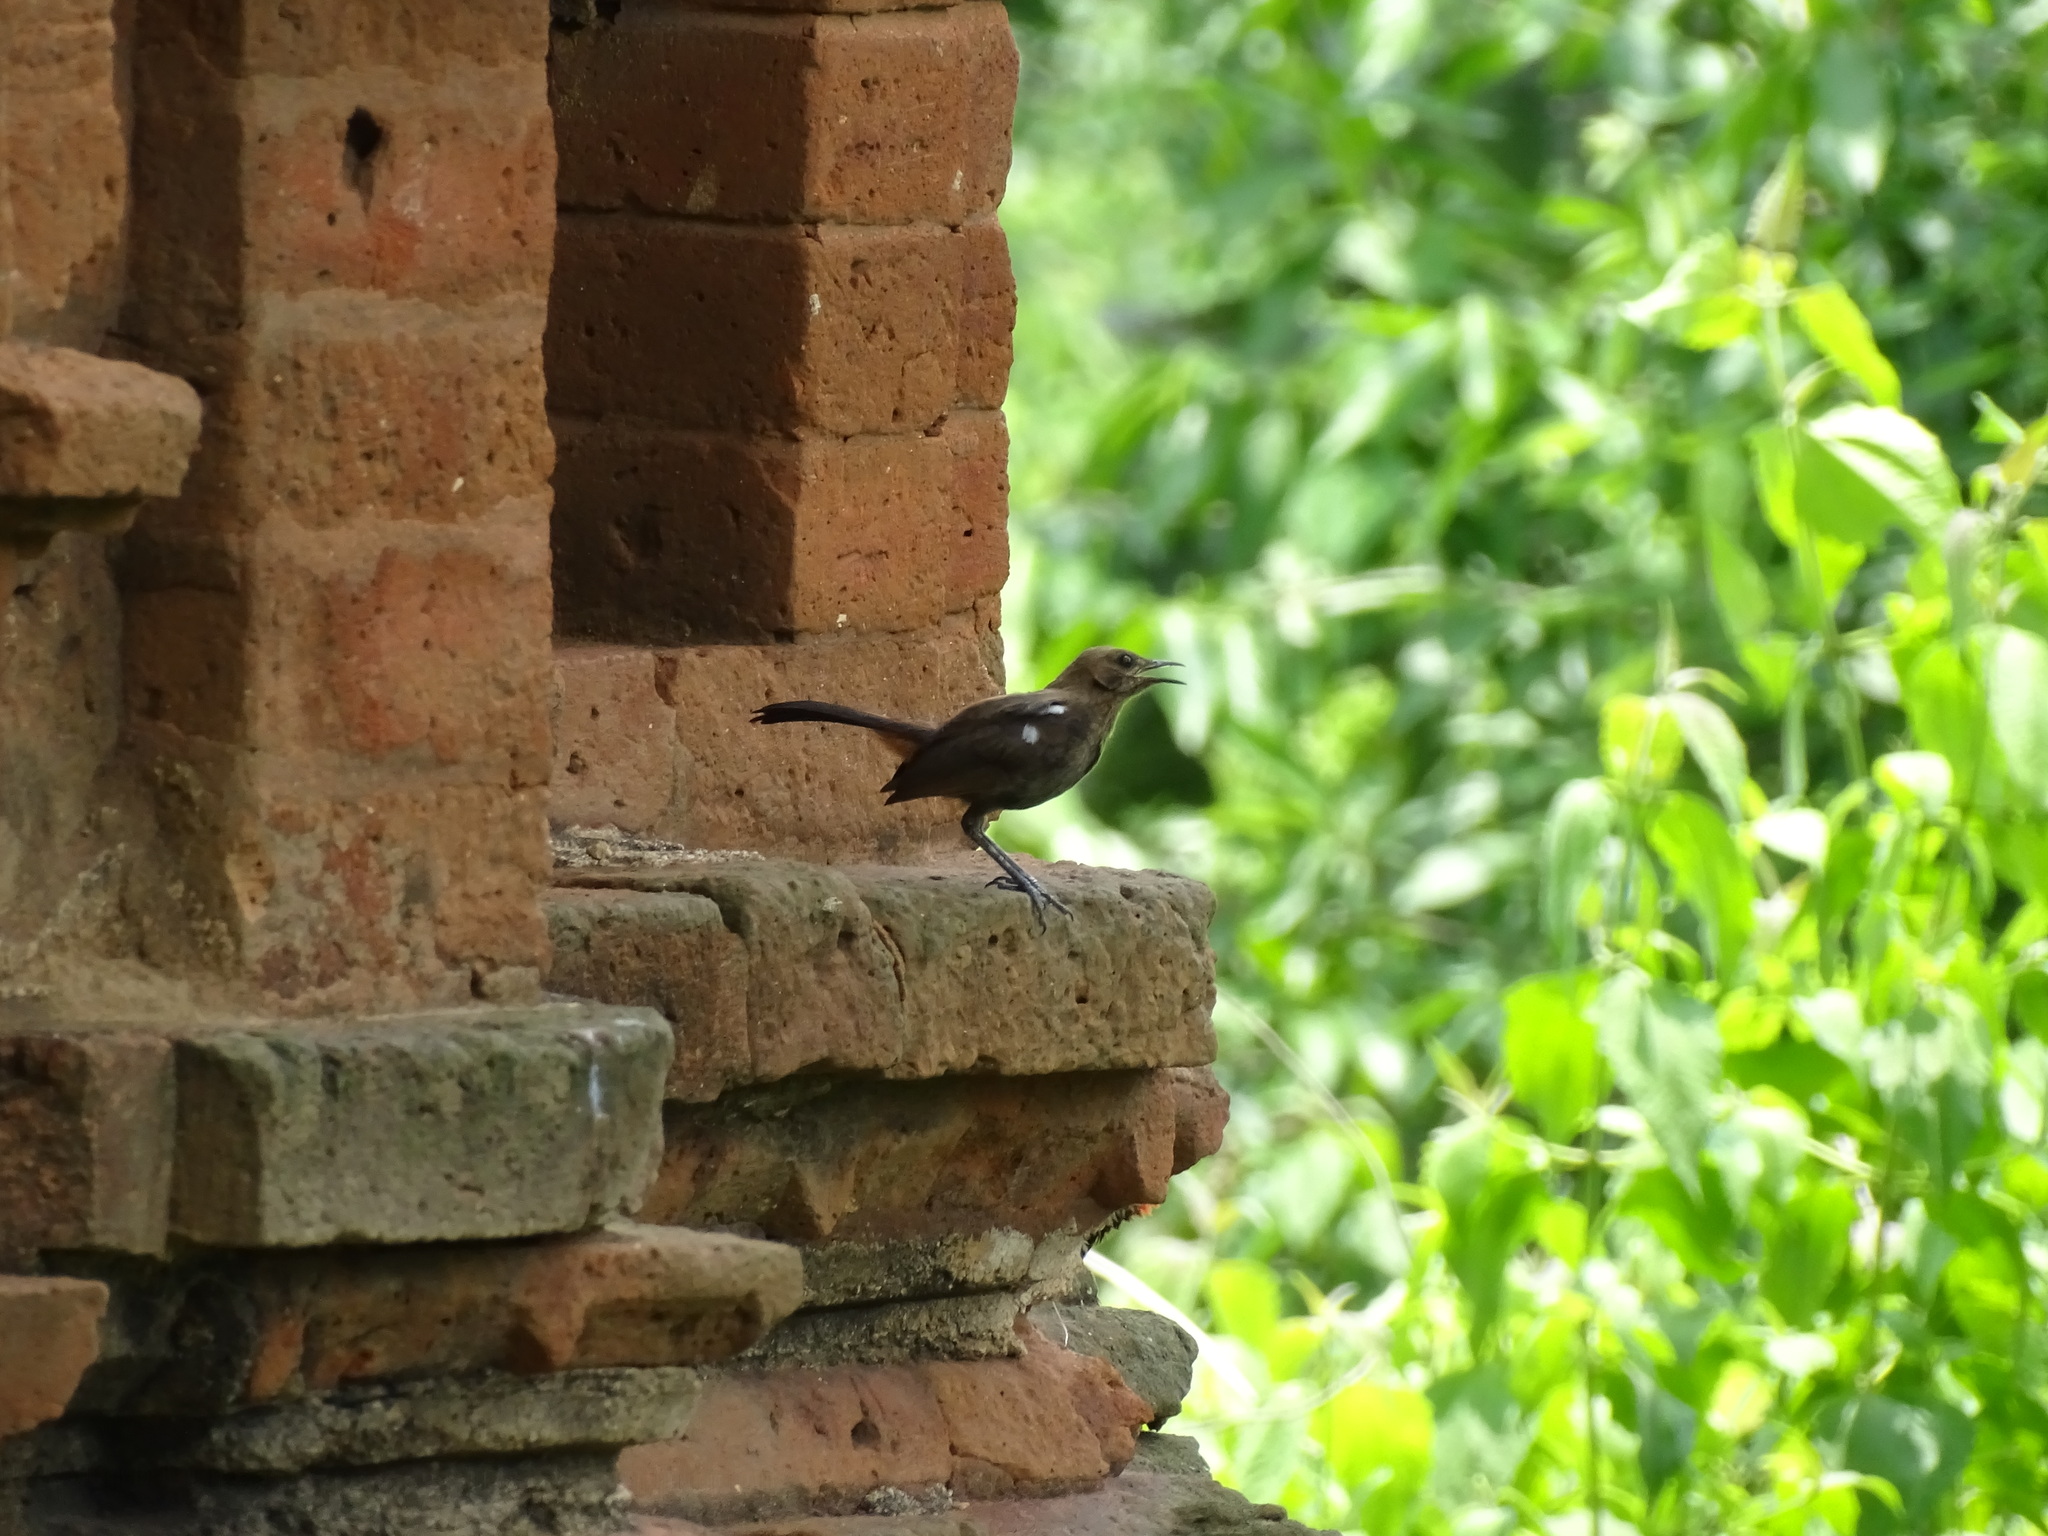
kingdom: Animalia
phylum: Chordata
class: Aves
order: Passeriformes
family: Muscicapidae
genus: Saxicoloides
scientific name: Saxicoloides fulicatus
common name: Indian robin
